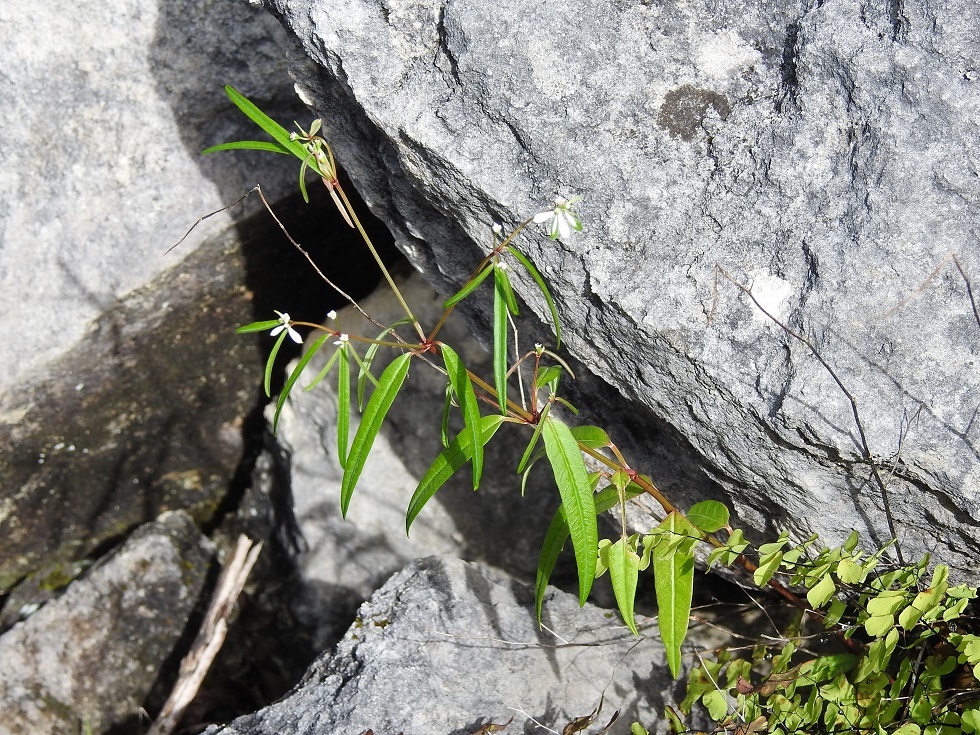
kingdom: Plantae
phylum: Tracheophyta
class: Magnoliopsida
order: Malpighiales
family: Euphorbiaceae
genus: Euphorbia
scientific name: Euphorbia ariensis
